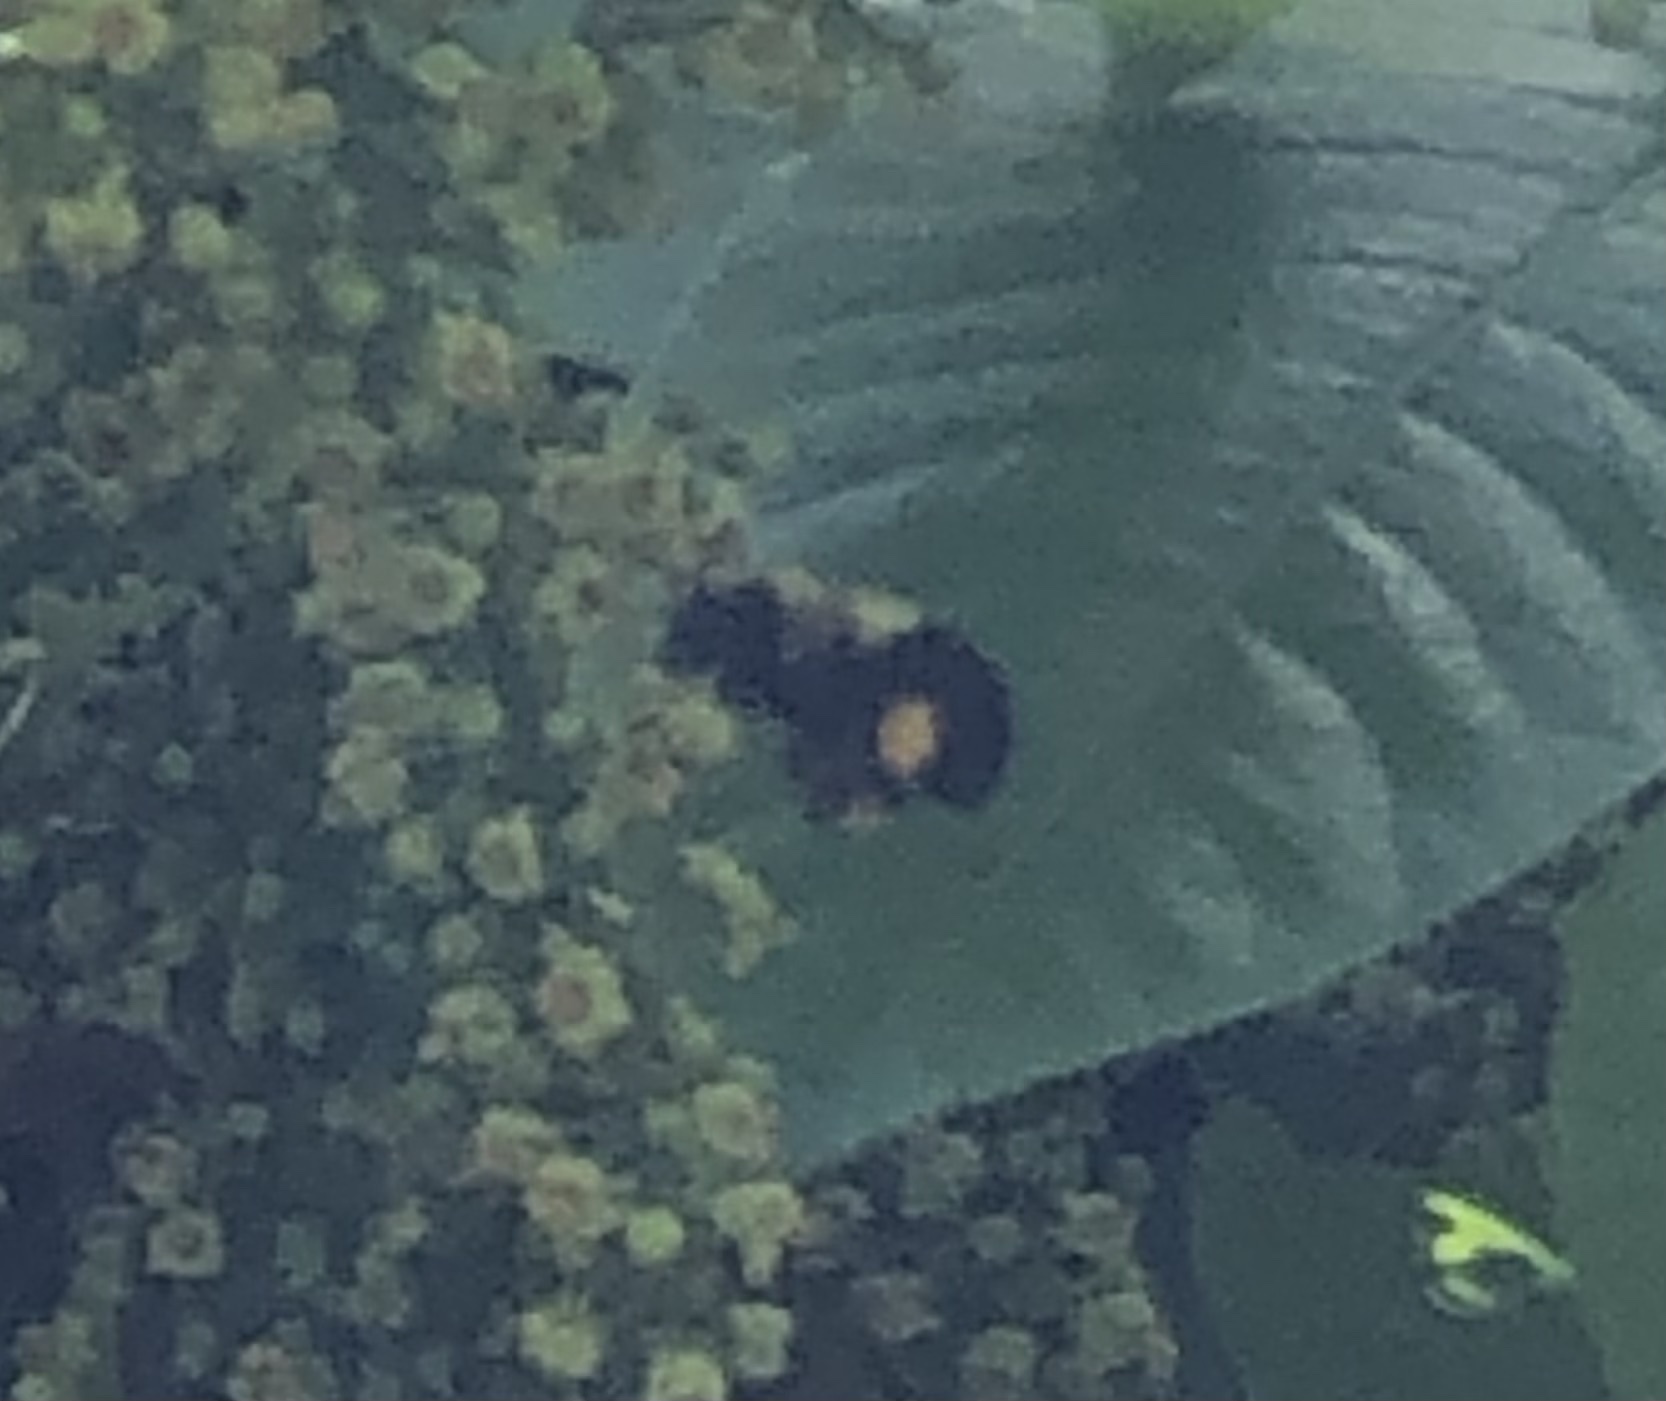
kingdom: Animalia
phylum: Arthropoda
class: Insecta
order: Hymenoptera
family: Apidae
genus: Bombus
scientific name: Bombus
